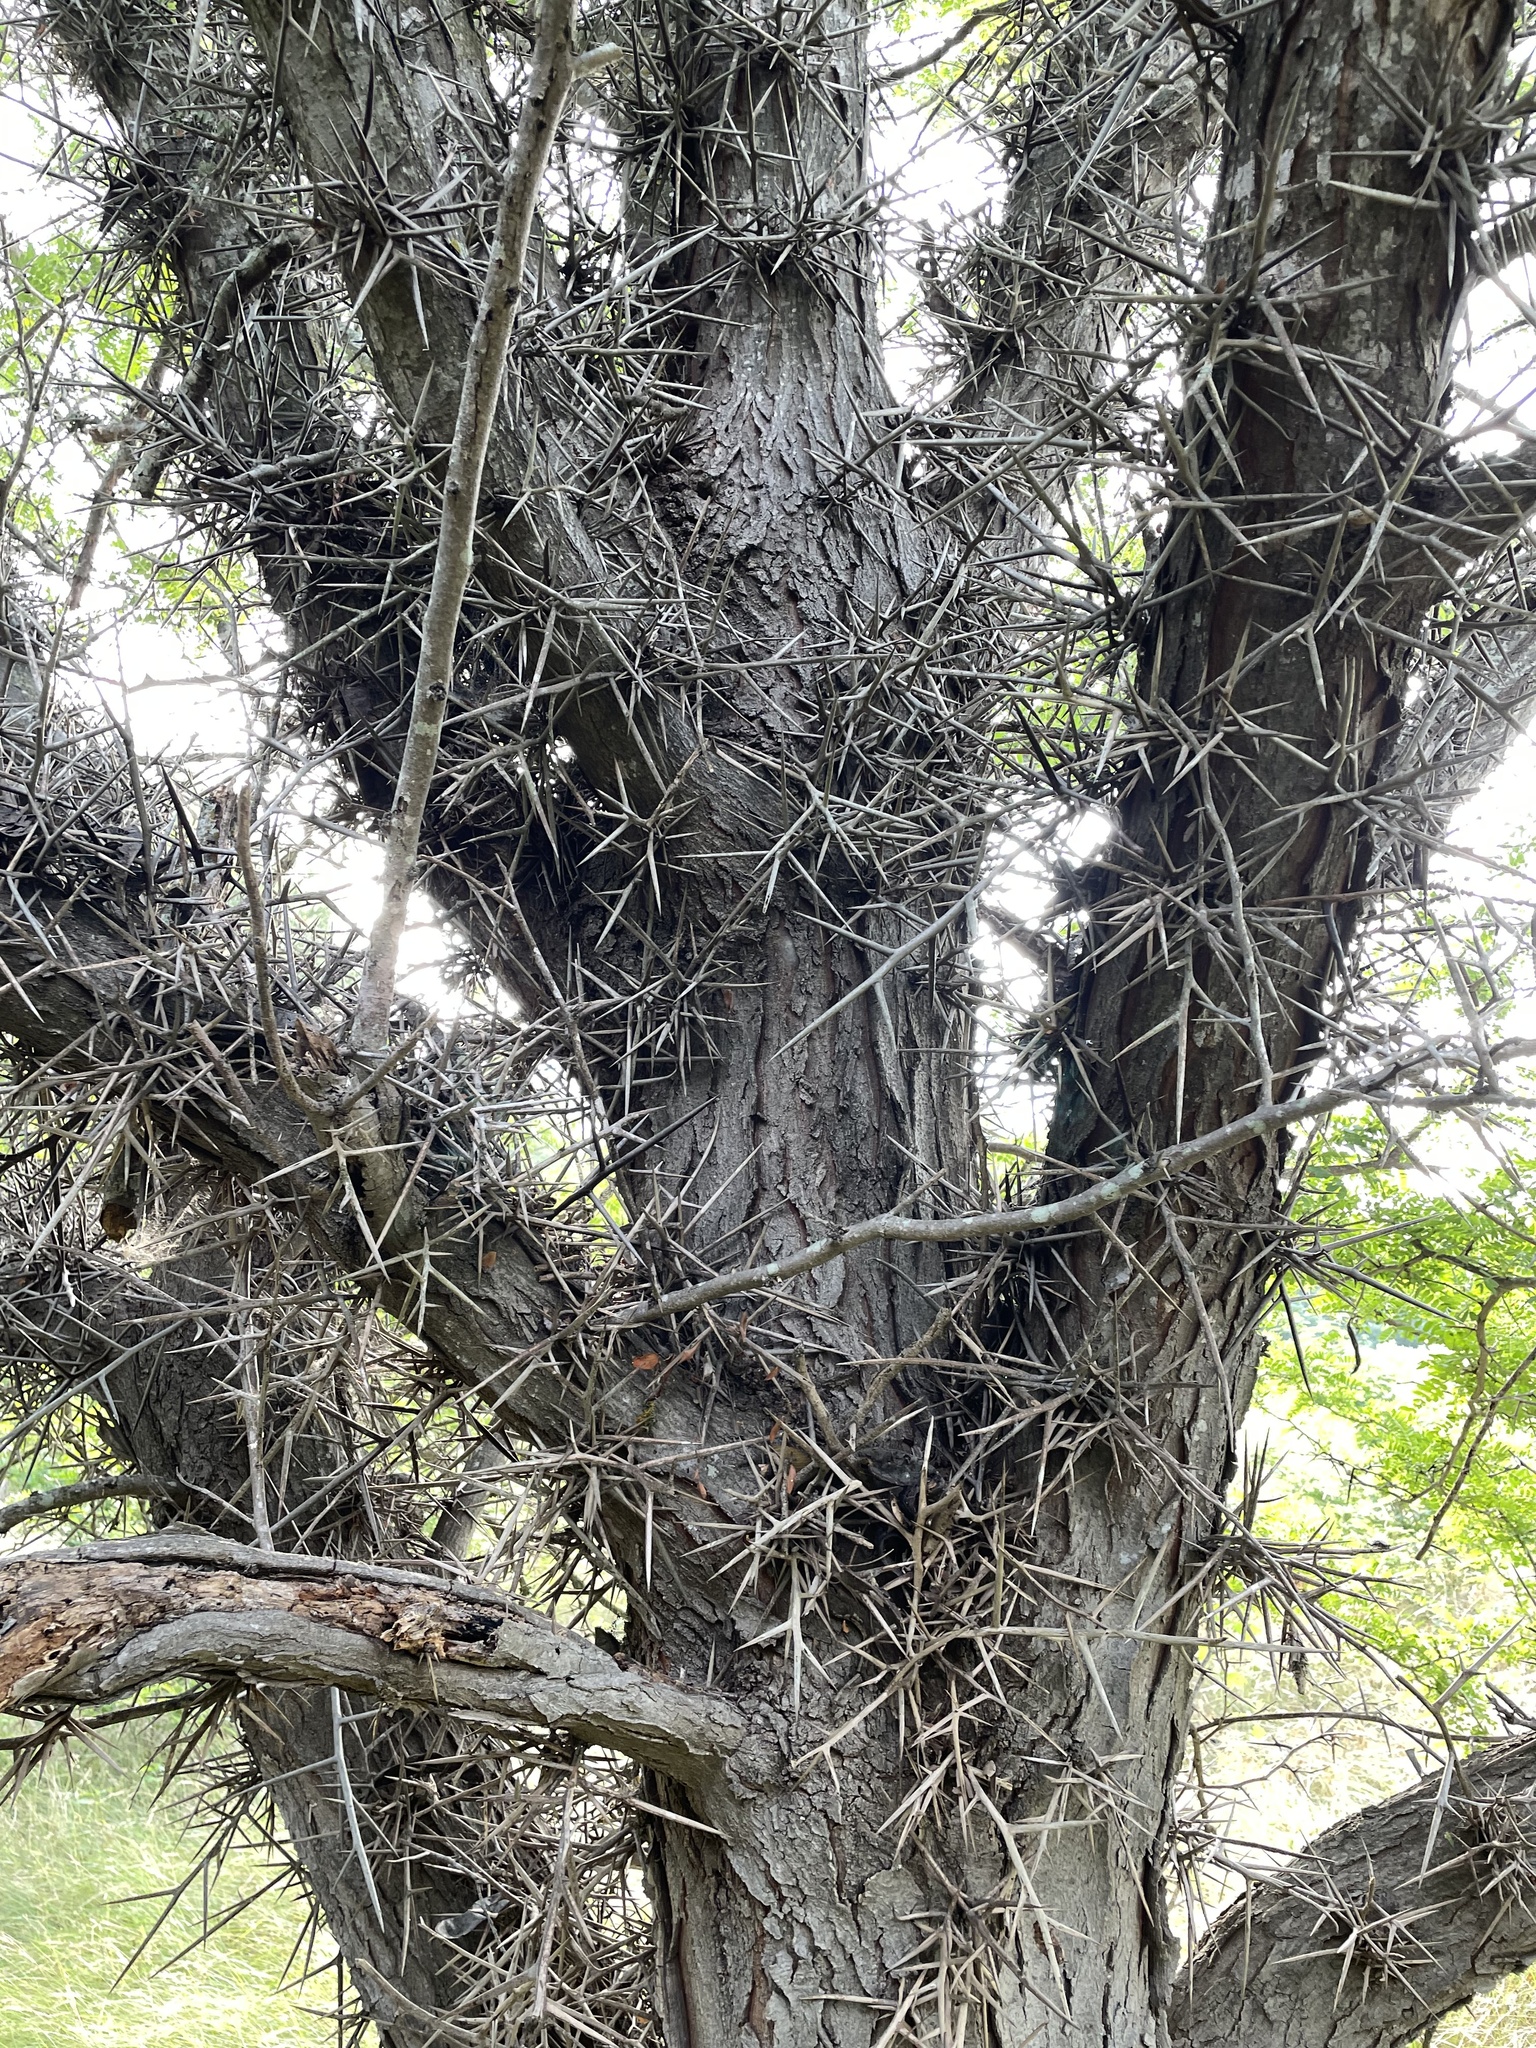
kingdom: Plantae
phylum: Tracheophyta
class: Magnoliopsida
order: Fabales
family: Fabaceae
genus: Gleditsia
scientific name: Gleditsia triacanthos
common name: Common honeylocust
